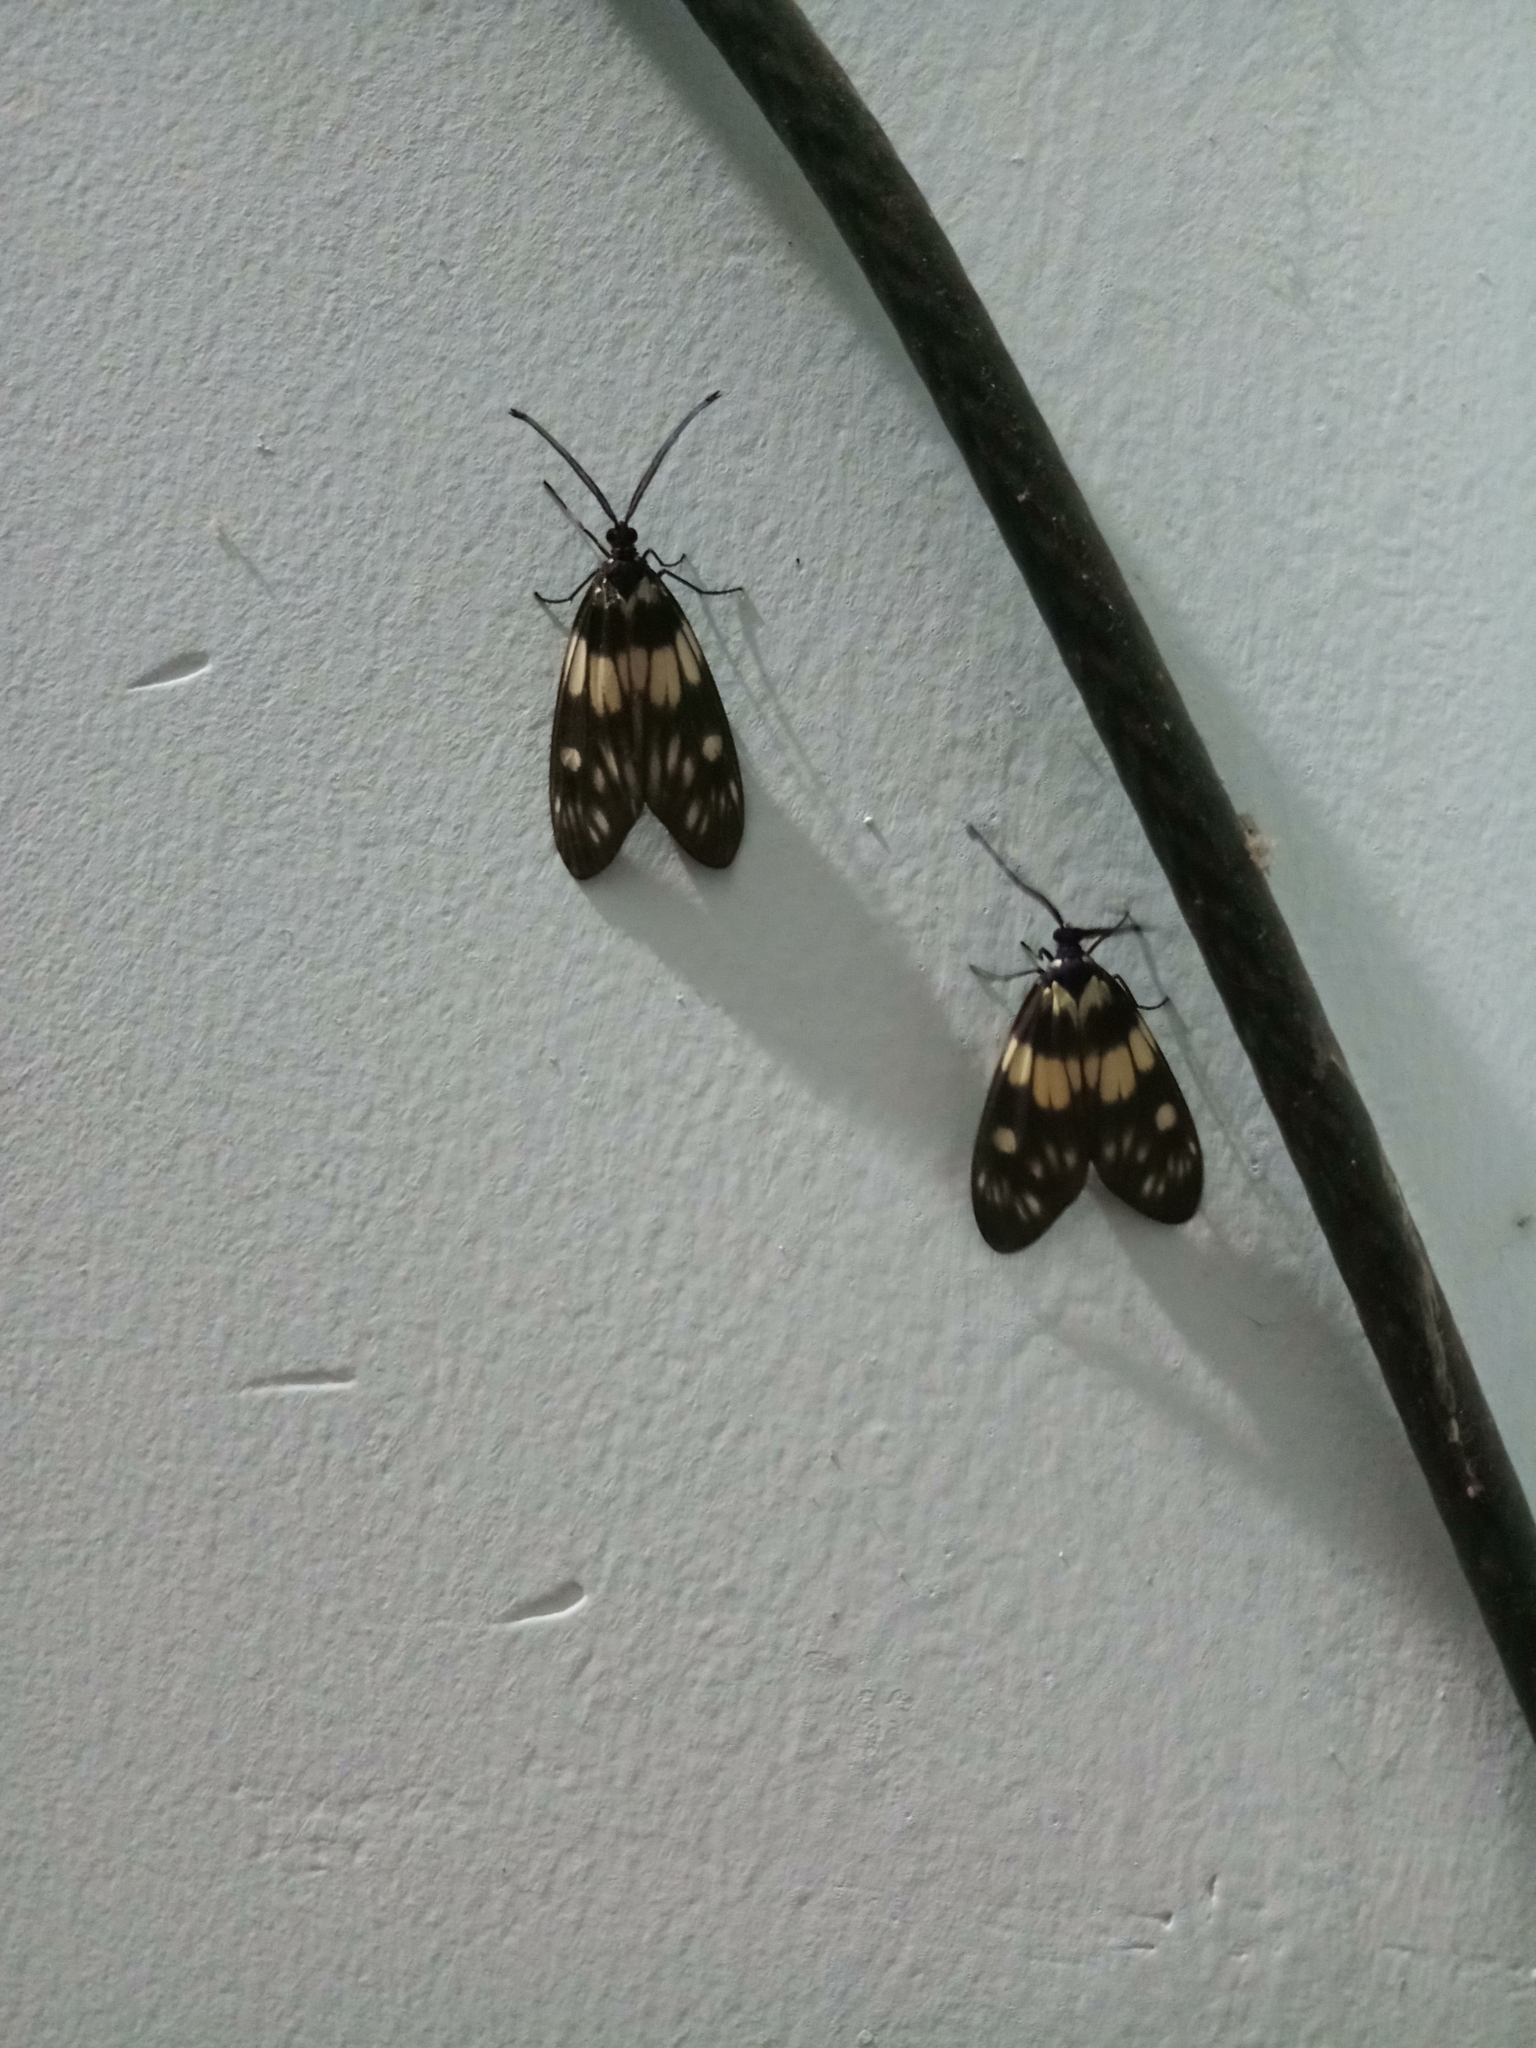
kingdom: Animalia
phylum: Arthropoda
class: Insecta
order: Lepidoptera
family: Zygaenidae
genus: Eterusia
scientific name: Eterusia aedea
